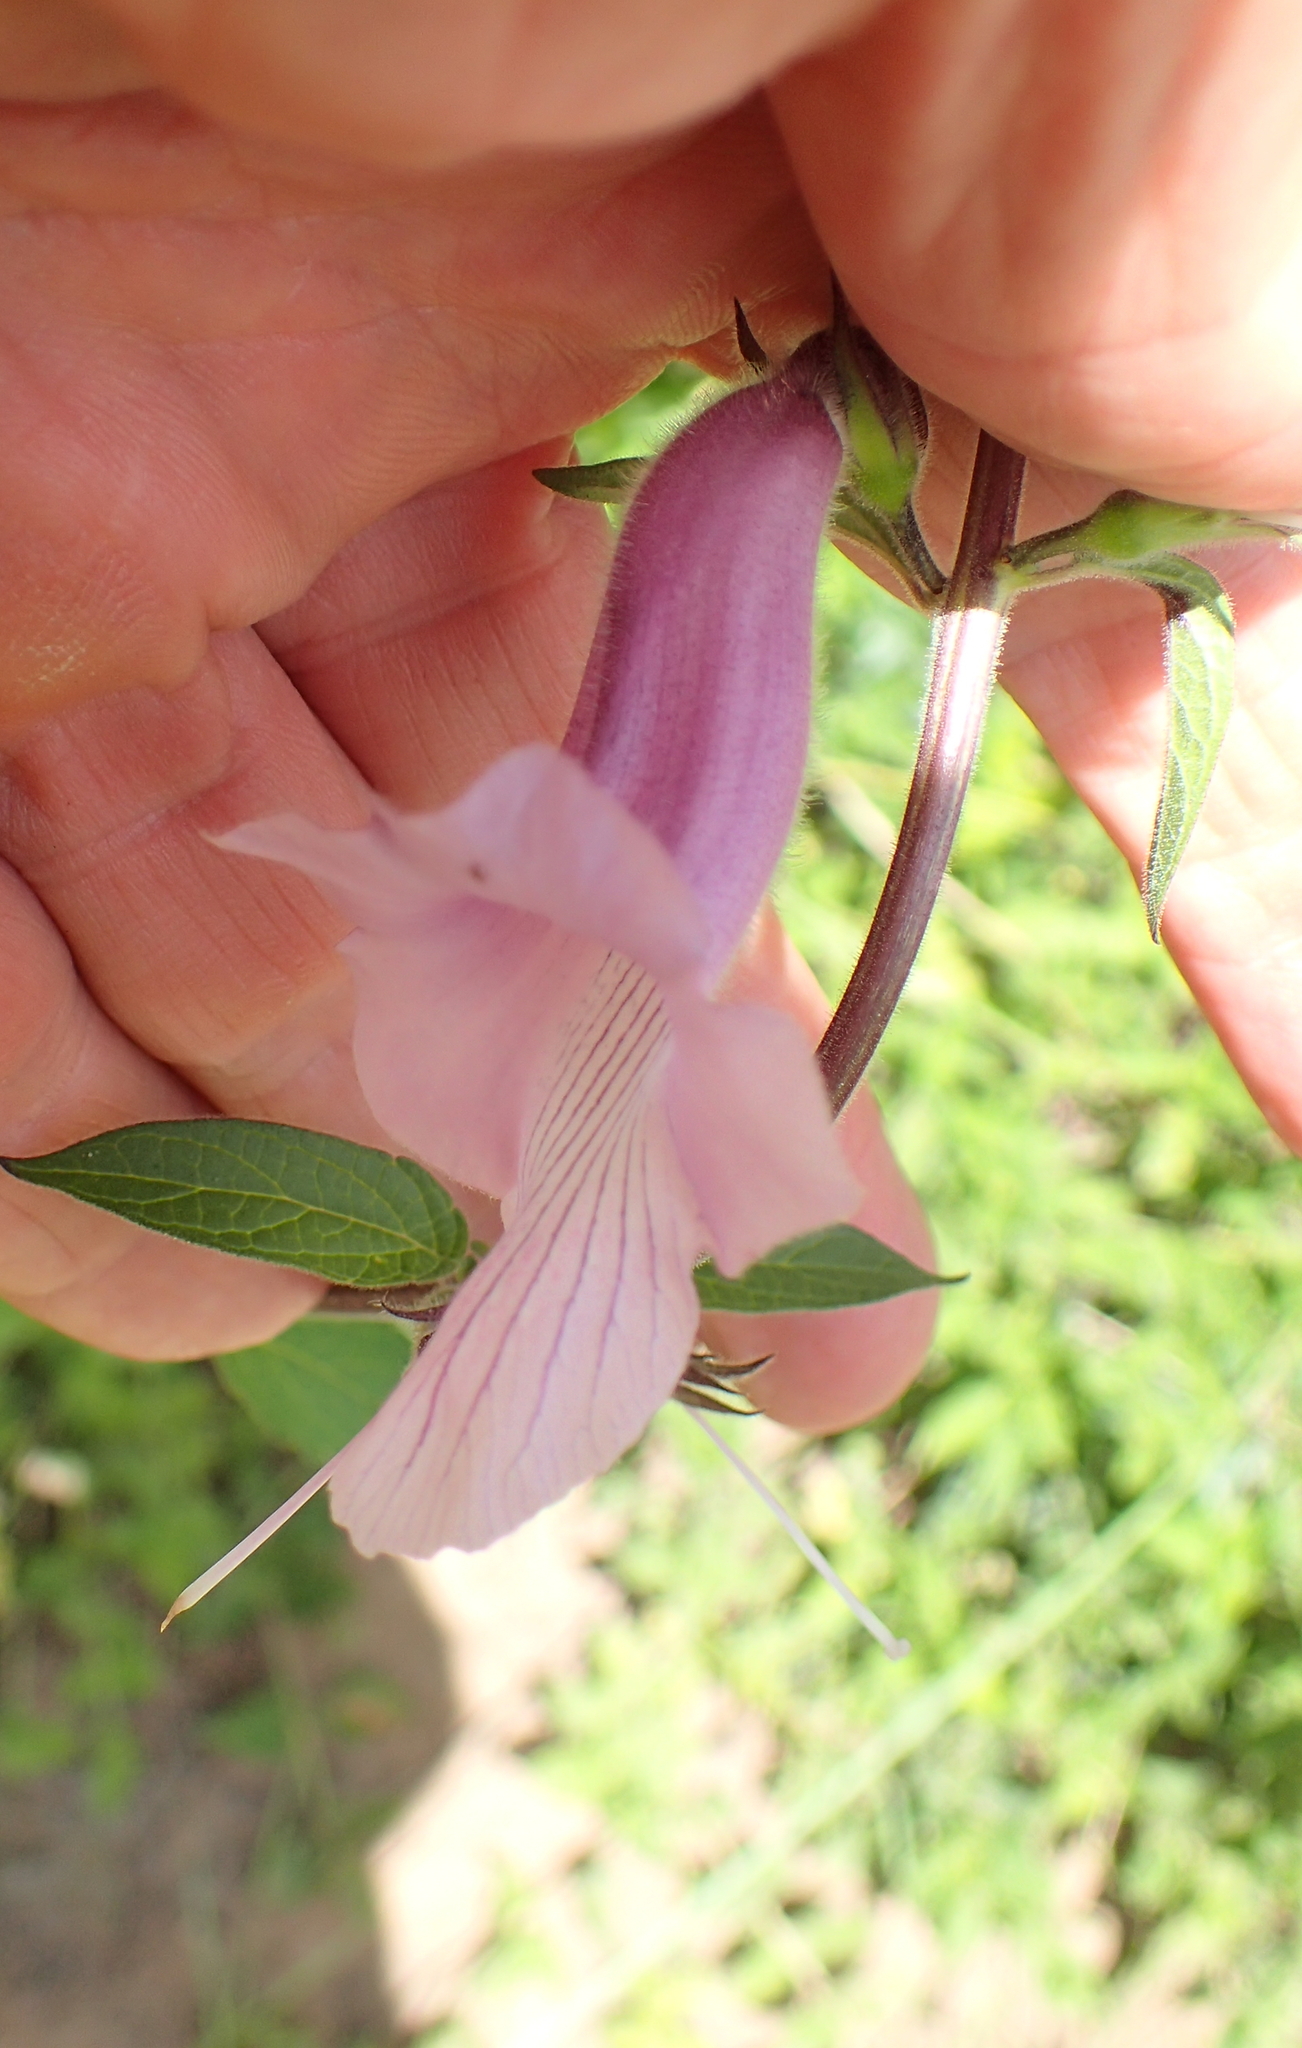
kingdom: Plantae
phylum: Tracheophyta
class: Magnoliopsida
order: Lamiales
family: Pedaliaceae
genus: Sesamum
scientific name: Sesamum trilobum
